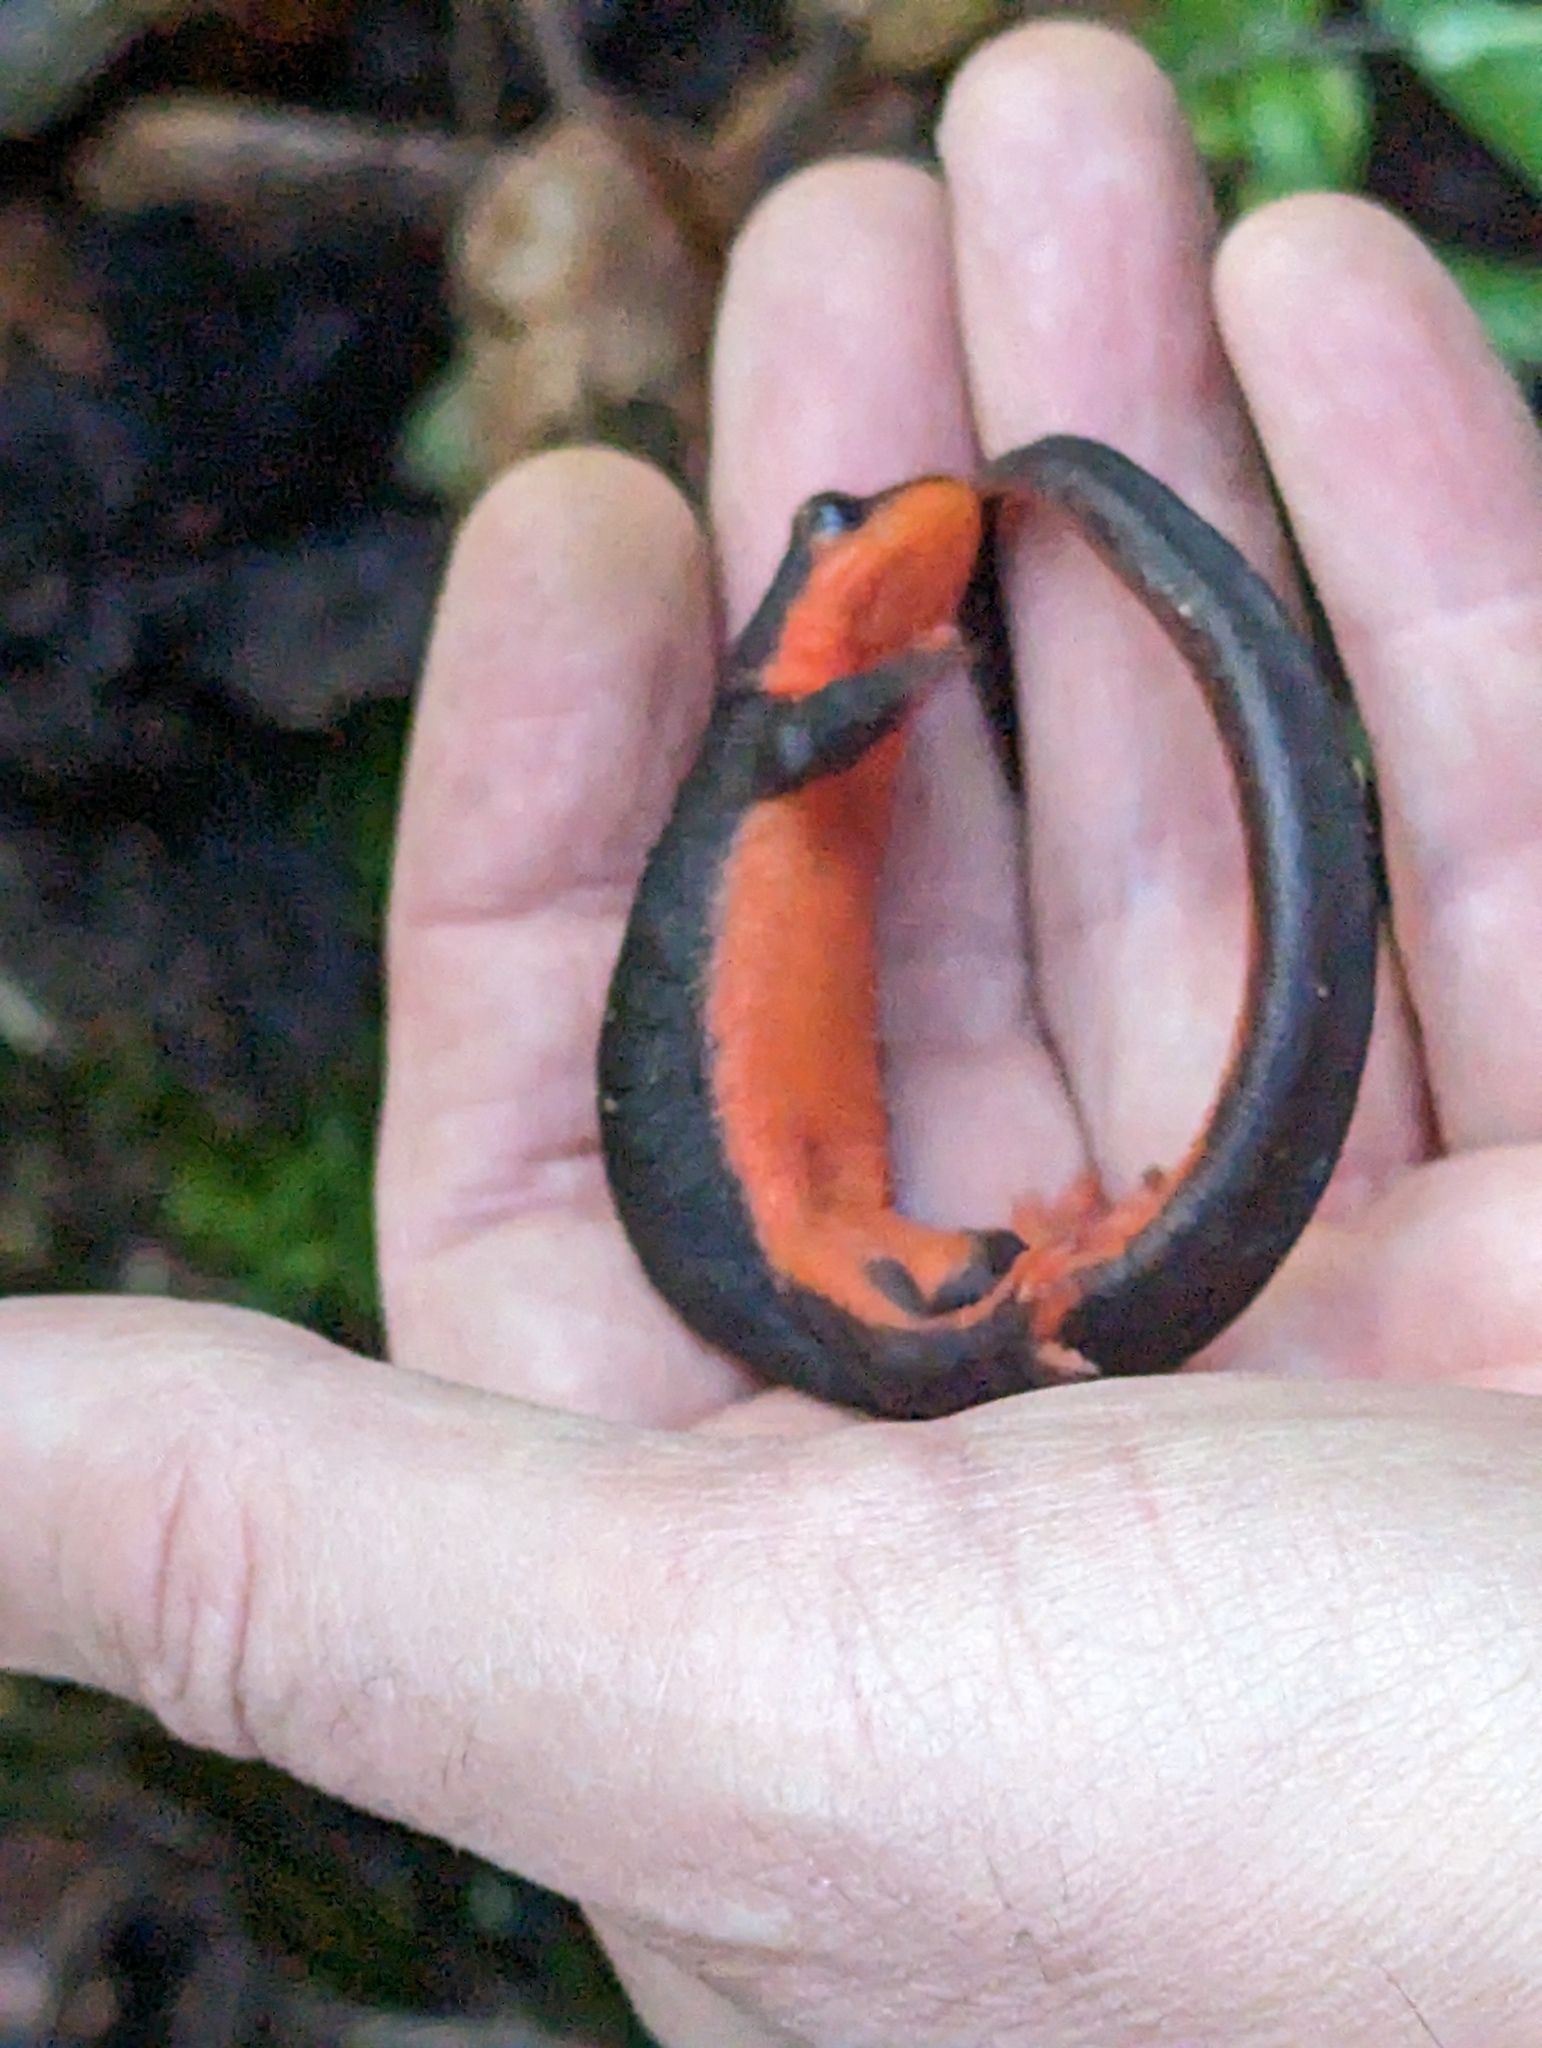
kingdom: Animalia
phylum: Chordata
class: Amphibia
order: Caudata
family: Salamandridae
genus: Taricha
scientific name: Taricha rivularis
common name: Red-bellied newt
